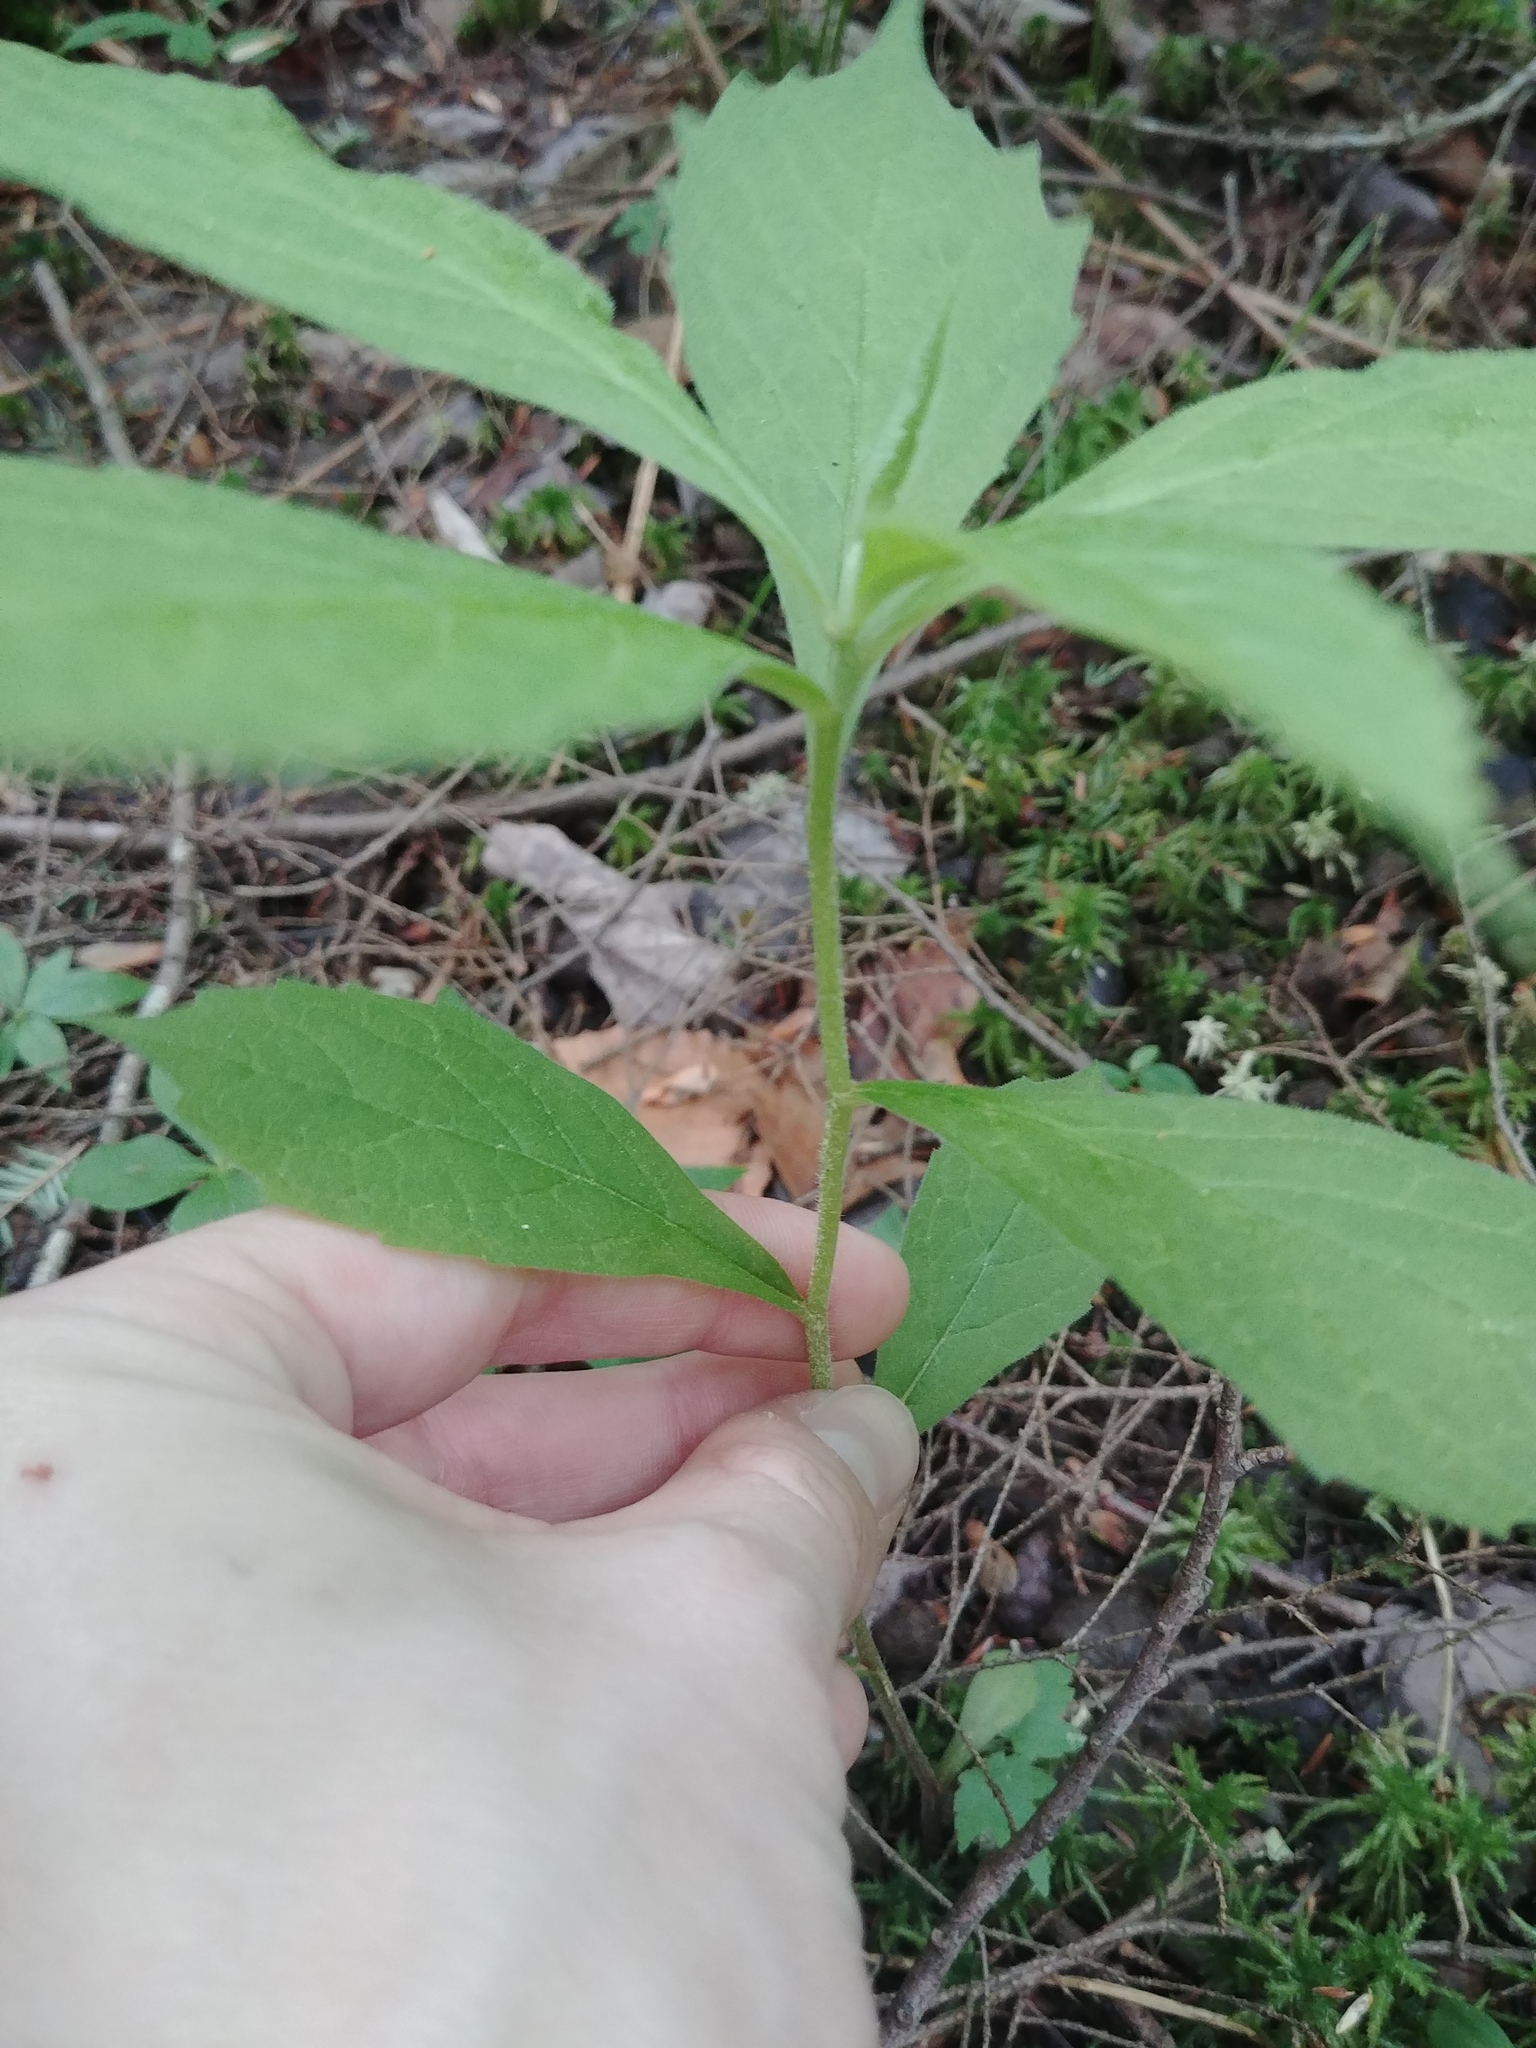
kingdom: Plantae
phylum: Tracheophyta
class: Magnoliopsida
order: Asterales
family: Asteraceae
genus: Oclemena
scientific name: Oclemena acuminata
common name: Mountain aster
